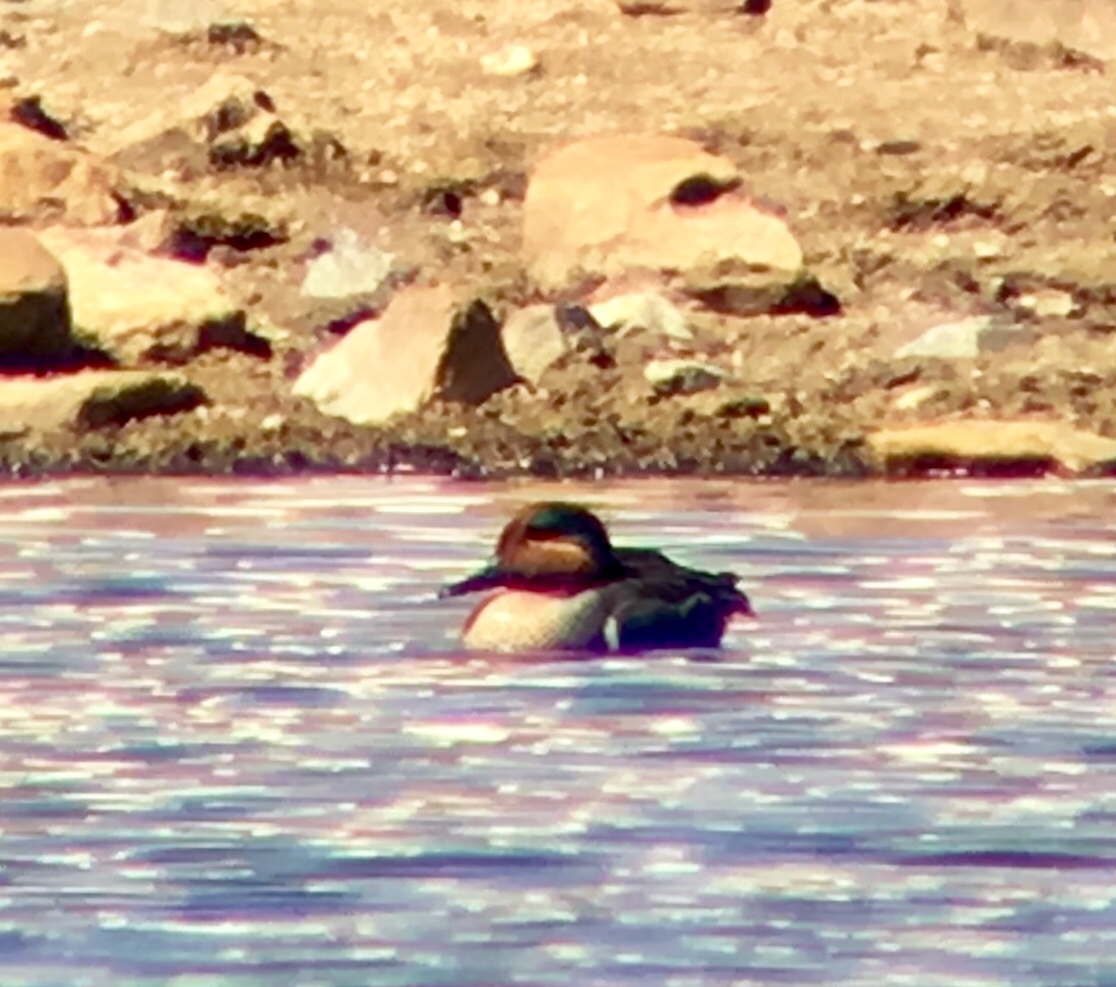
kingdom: Animalia
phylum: Chordata
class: Aves
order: Anseriformes
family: Anatidae
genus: Anas
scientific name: Anas crecca
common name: Eurasian teal
